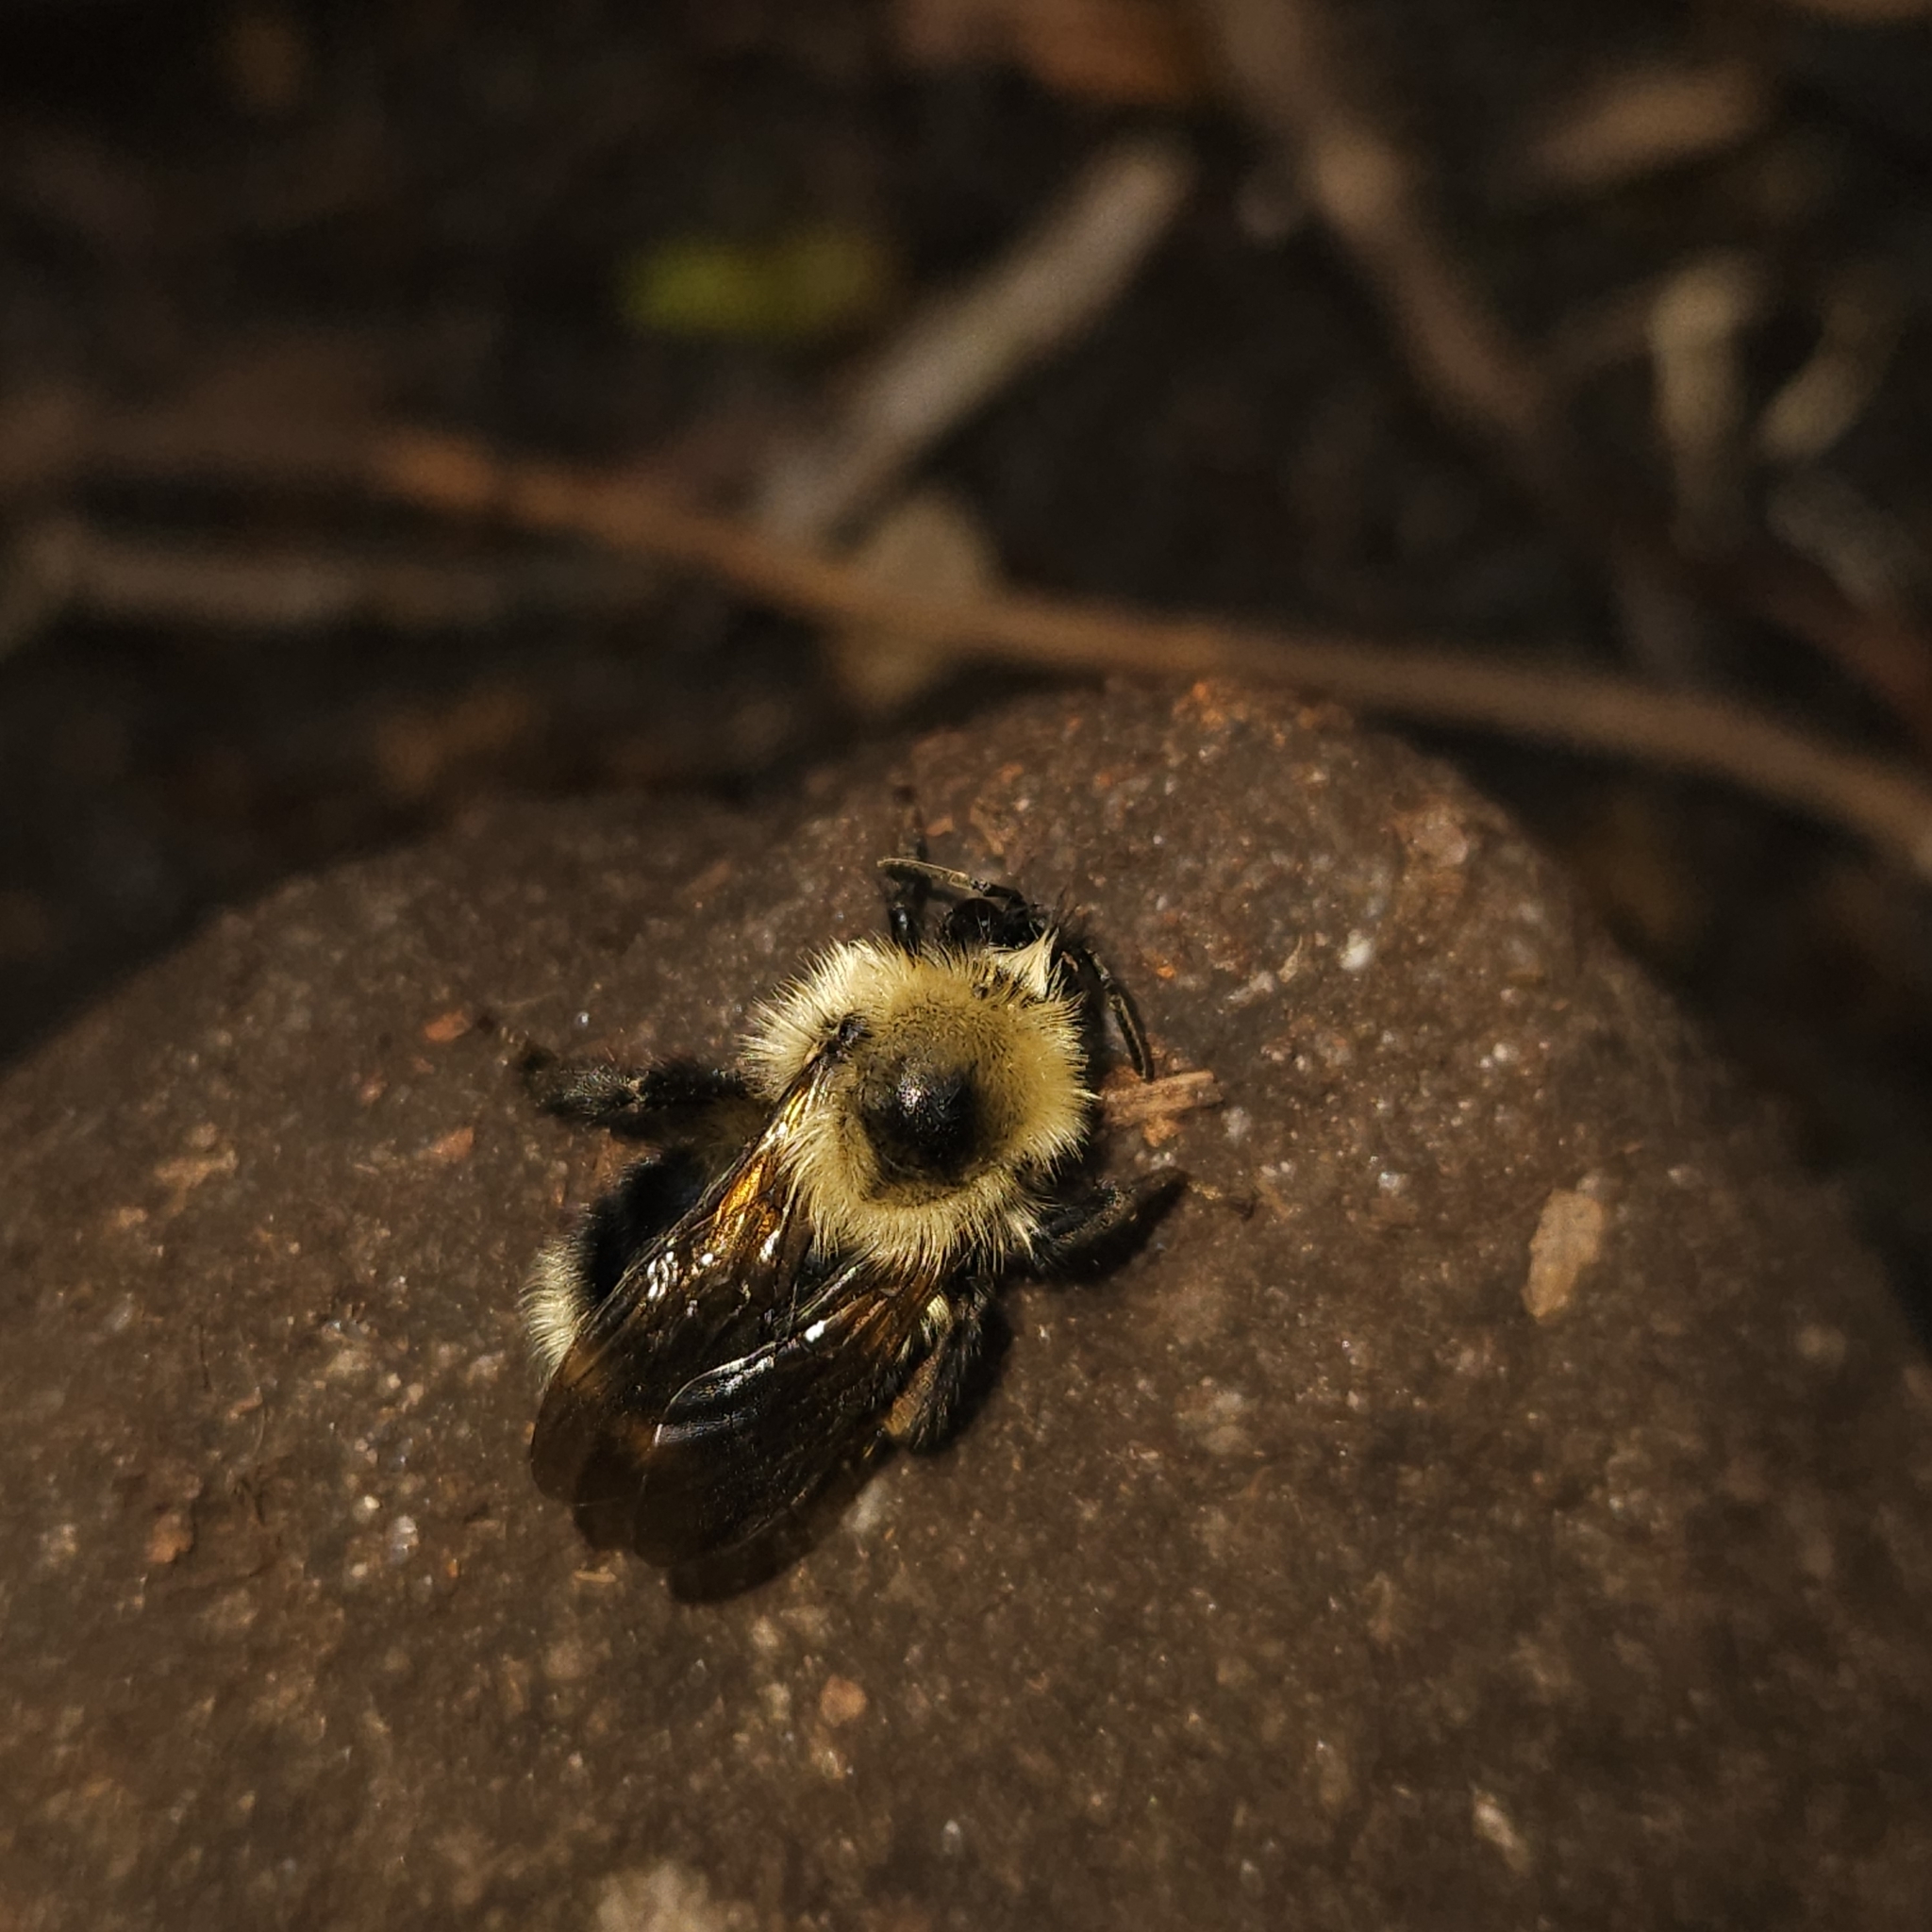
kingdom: Animalia
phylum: Arthropoda
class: Insecta
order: Hymenoptera
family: Apidae
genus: Bombus
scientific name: Bombus flavidus
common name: Fernald cuckoo bumble bee
